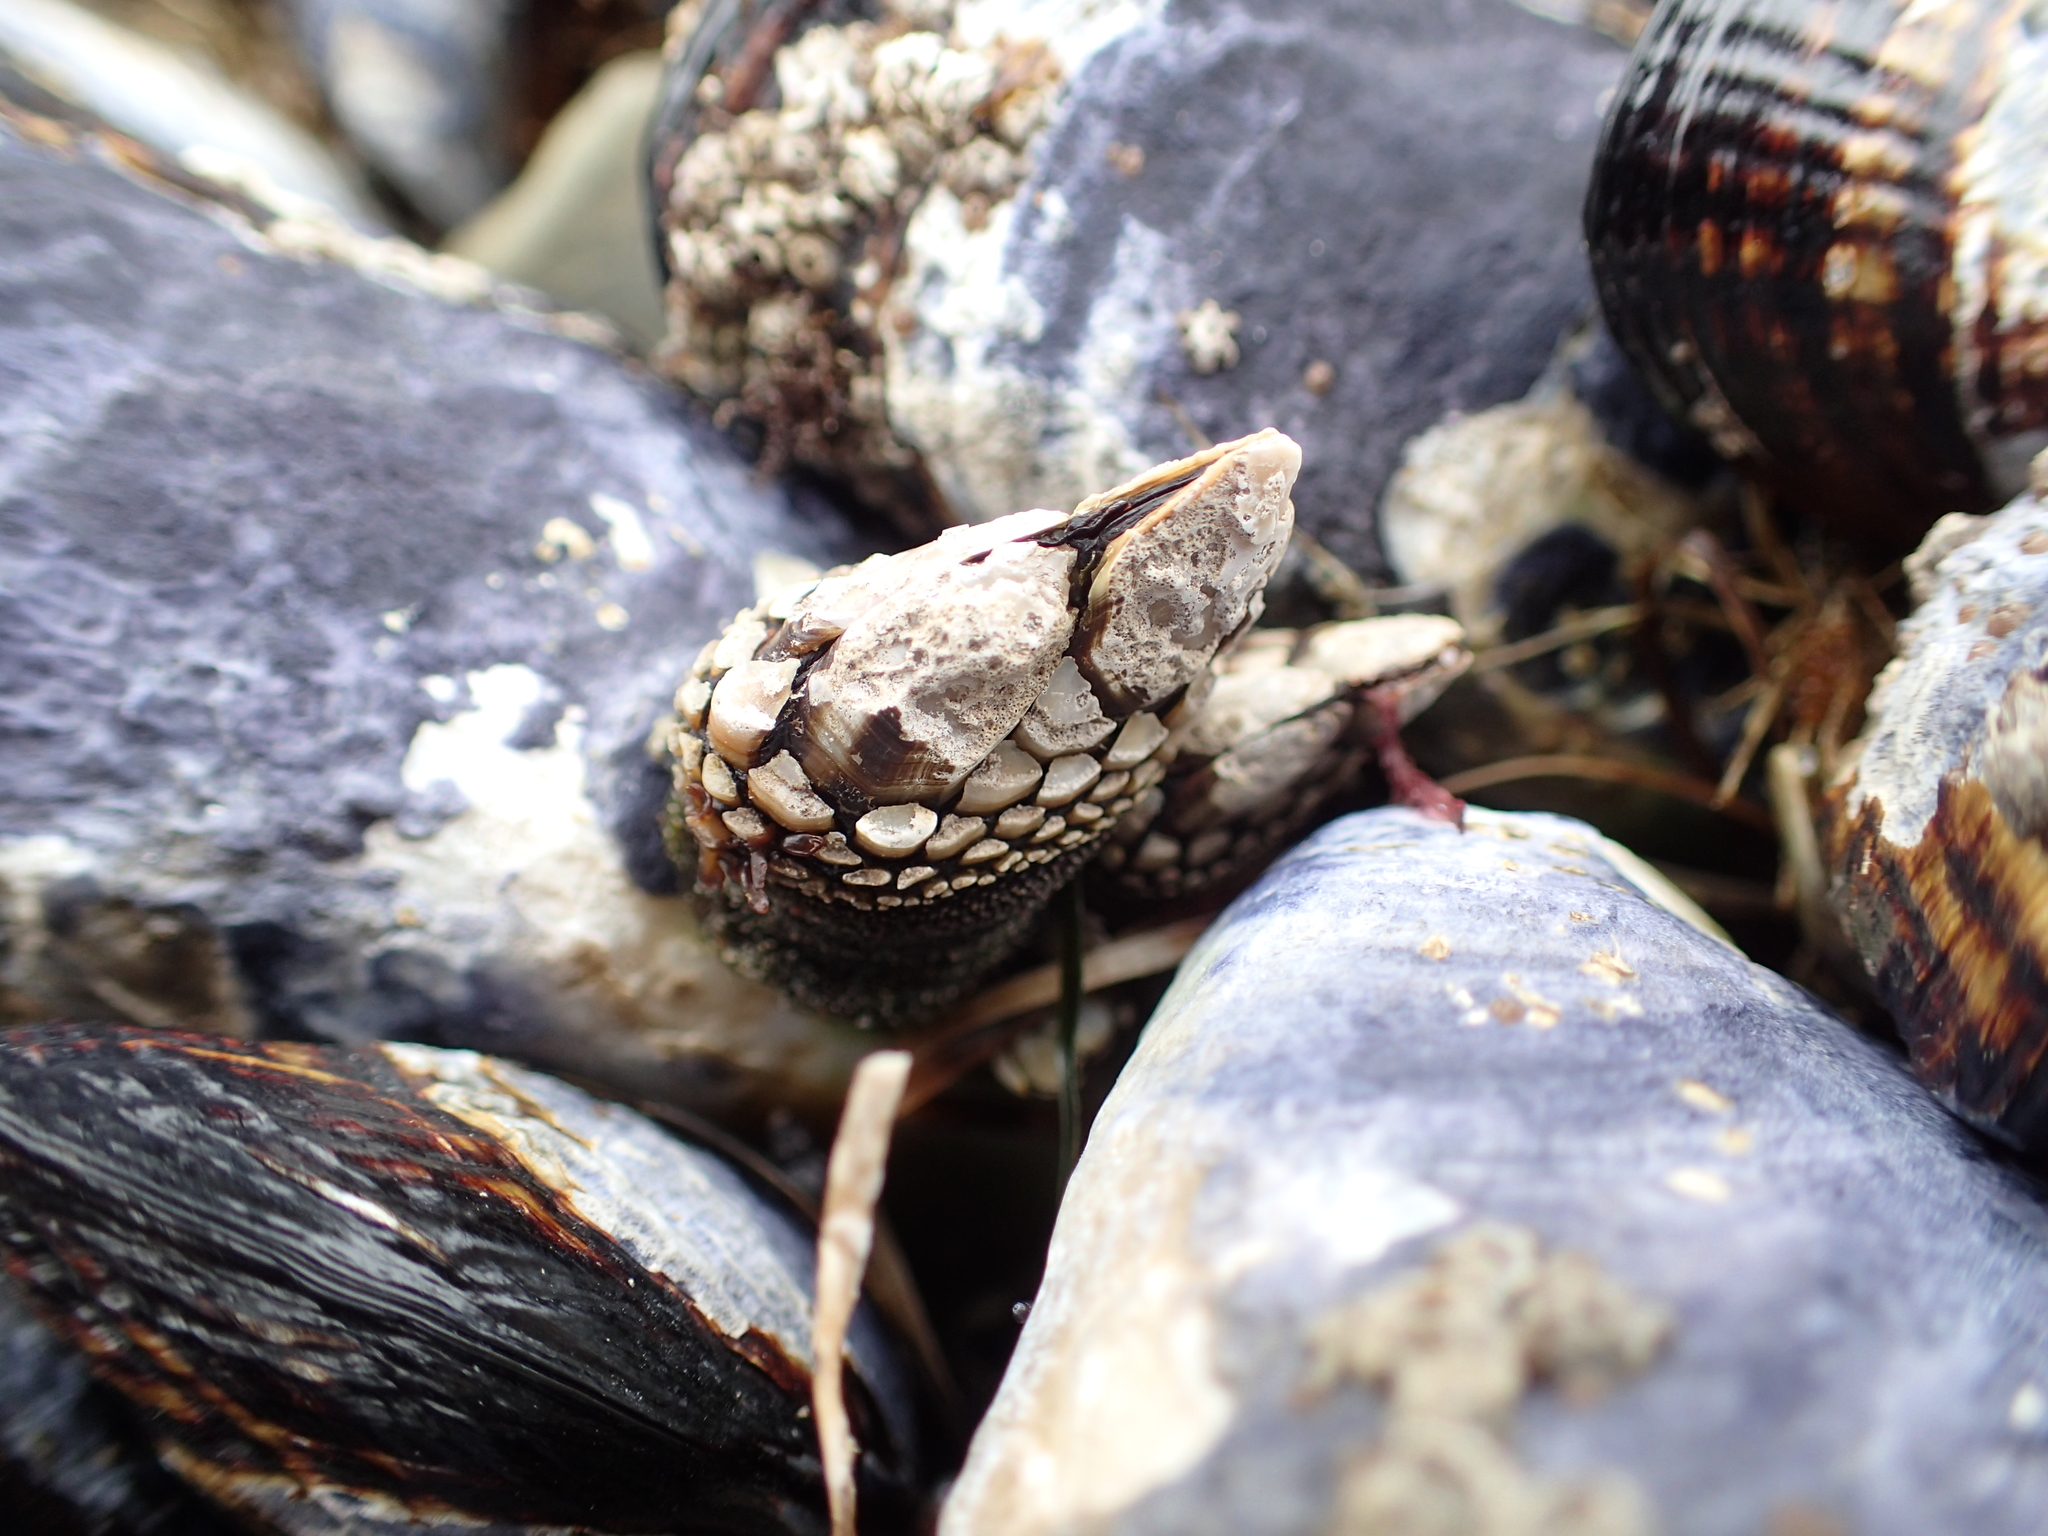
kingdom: Animalia
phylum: Arthropoda
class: Maxillopoda
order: Pedunculata
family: Pollicipedidae
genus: Pollicipes
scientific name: Pollicipes polymerus
